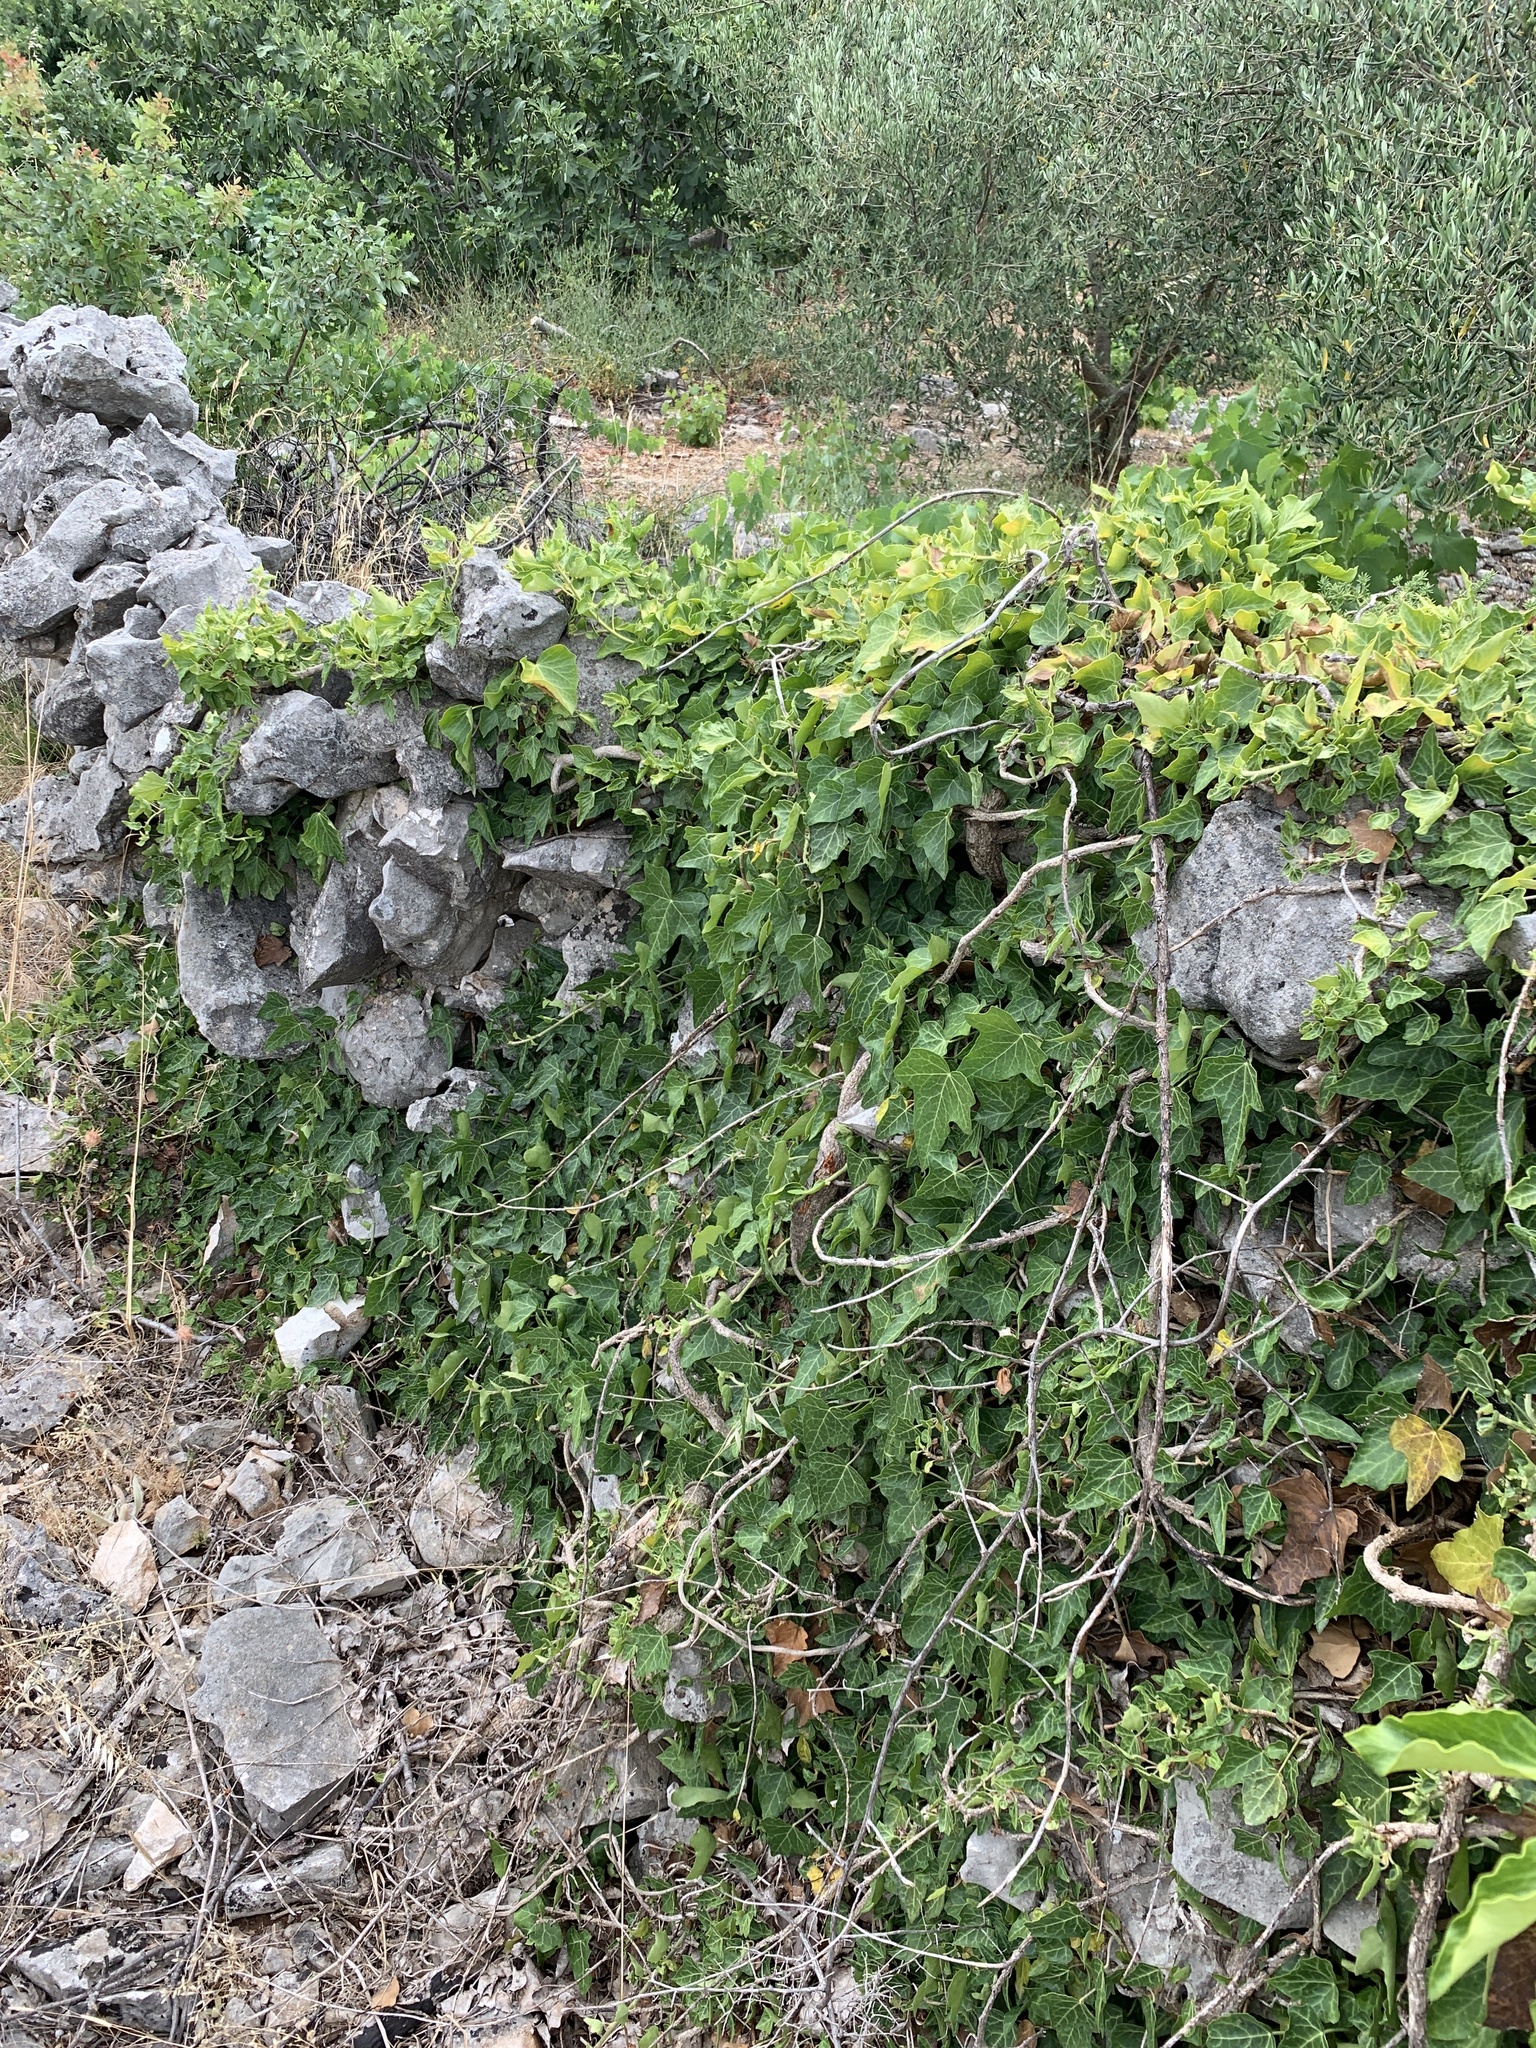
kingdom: Plantae
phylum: Tracheophyta
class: Magnoliopsida
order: Apiales
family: Araliaceae
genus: Hedera
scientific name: Hedera helix
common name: Ivy
